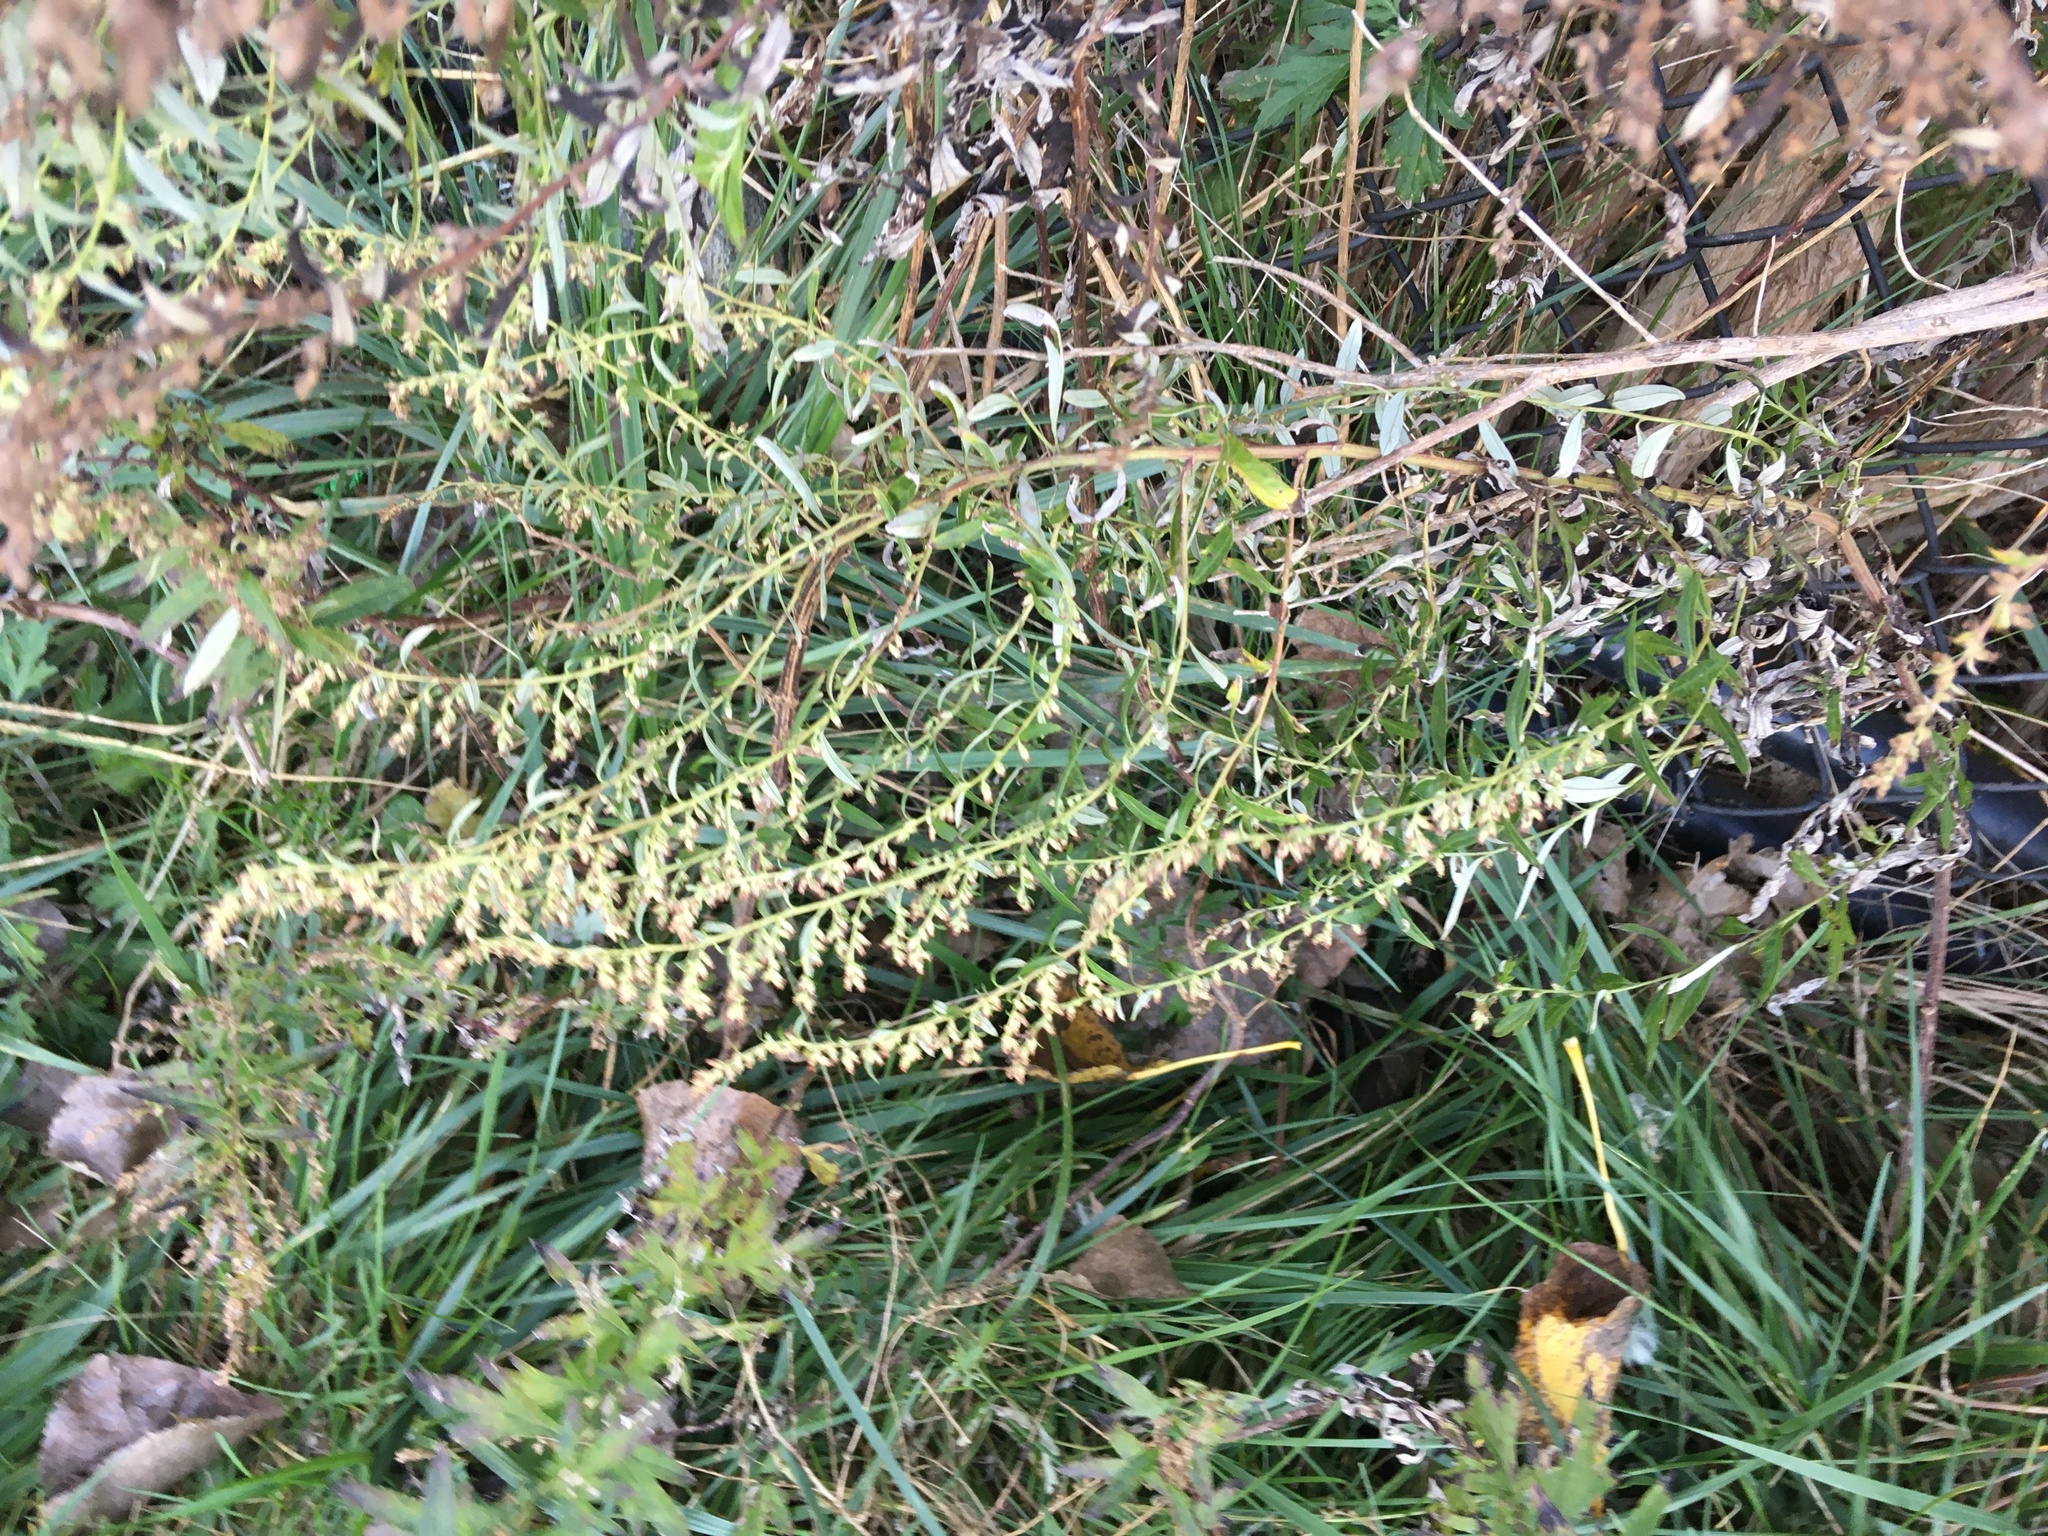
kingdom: Plantae
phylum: Tracheophyta
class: Magnoliopsida
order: Asterales
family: Asteraceae
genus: Artemisia
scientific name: Artemisia vulgaris
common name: Mugwort
